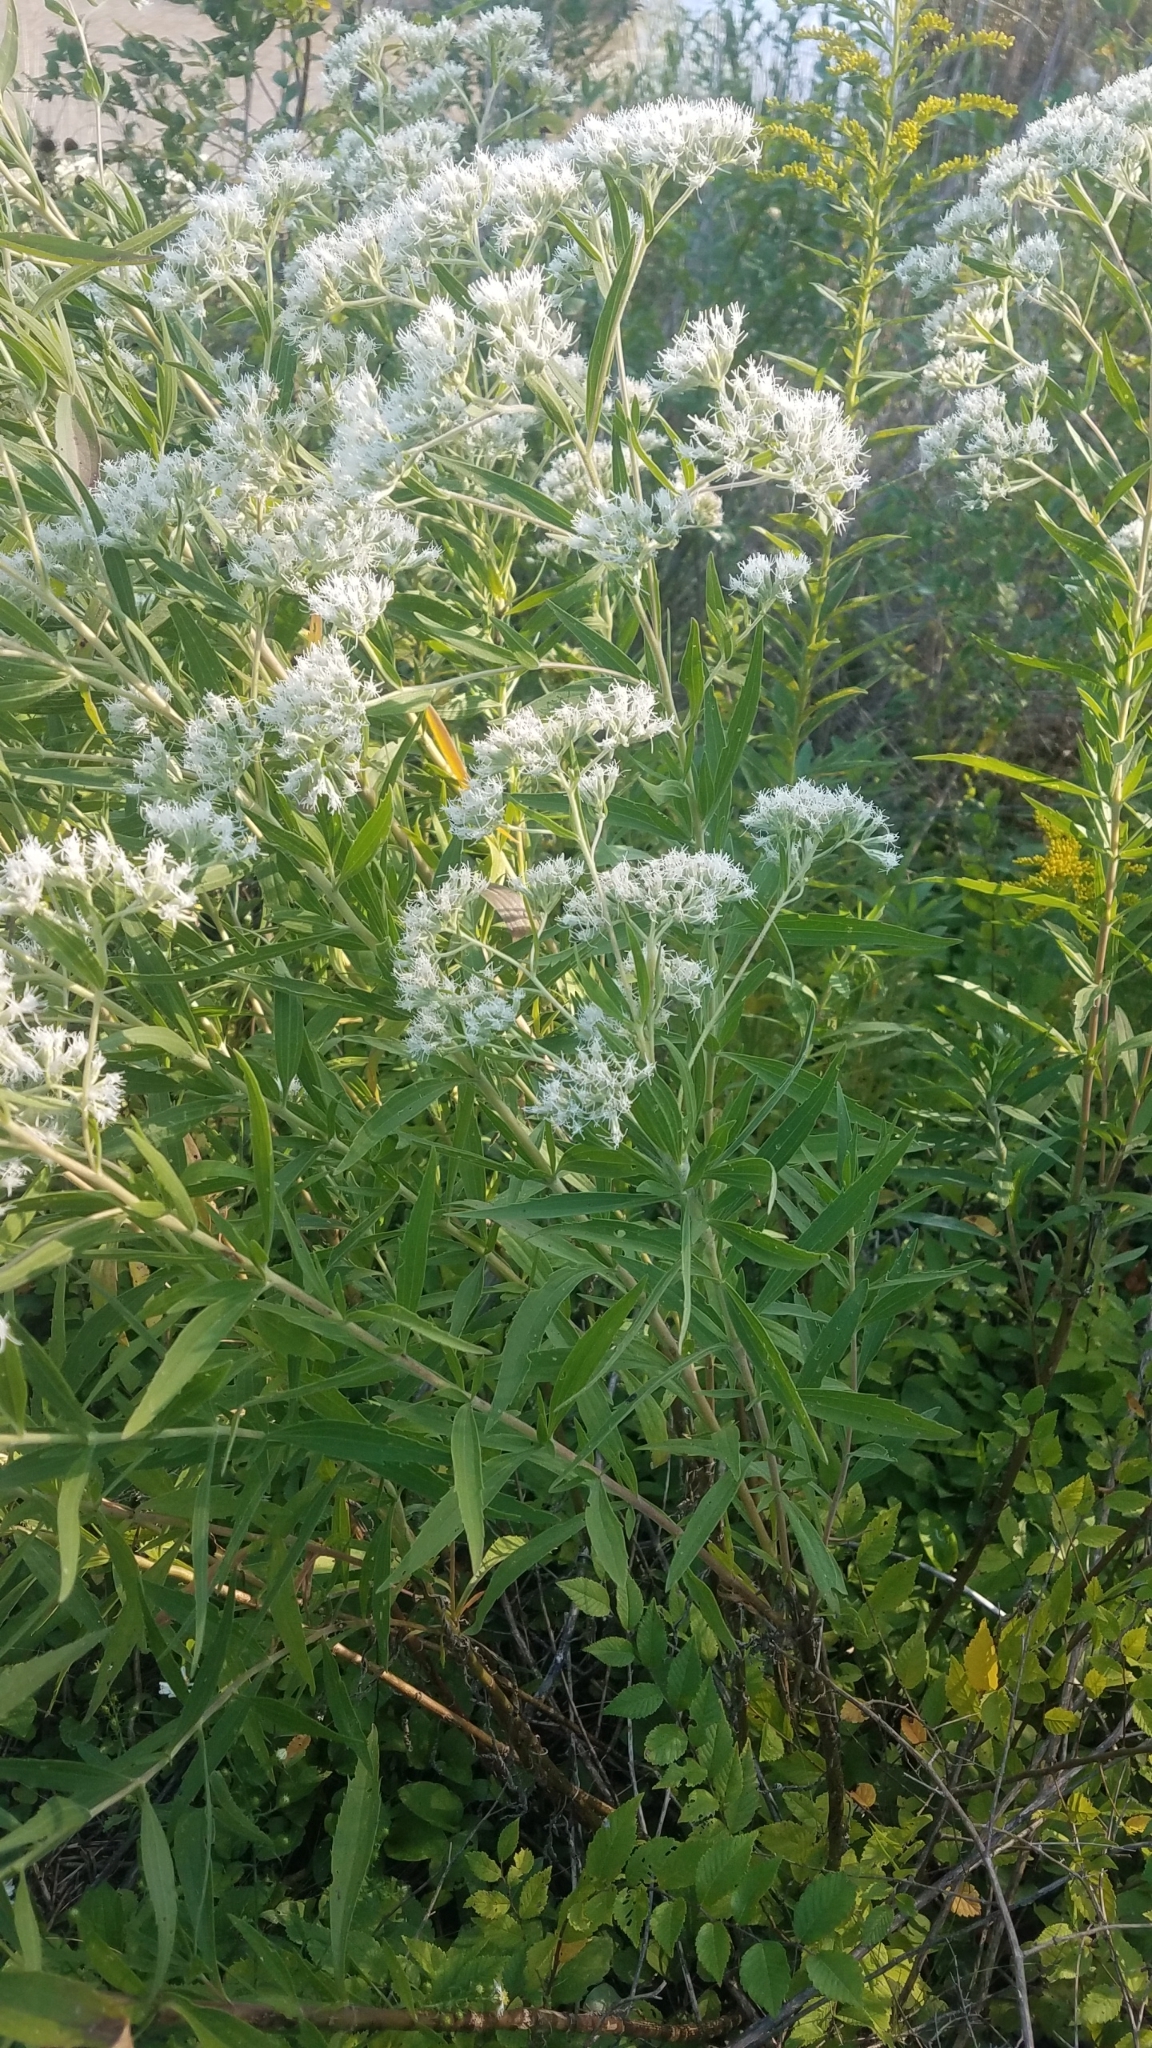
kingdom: Plantae
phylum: Tracheophyta
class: Magnoliopsida
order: Asterales
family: Asteraceae
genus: Eupatorium
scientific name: Eupatorium altissimum
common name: Tall thoroughwort
